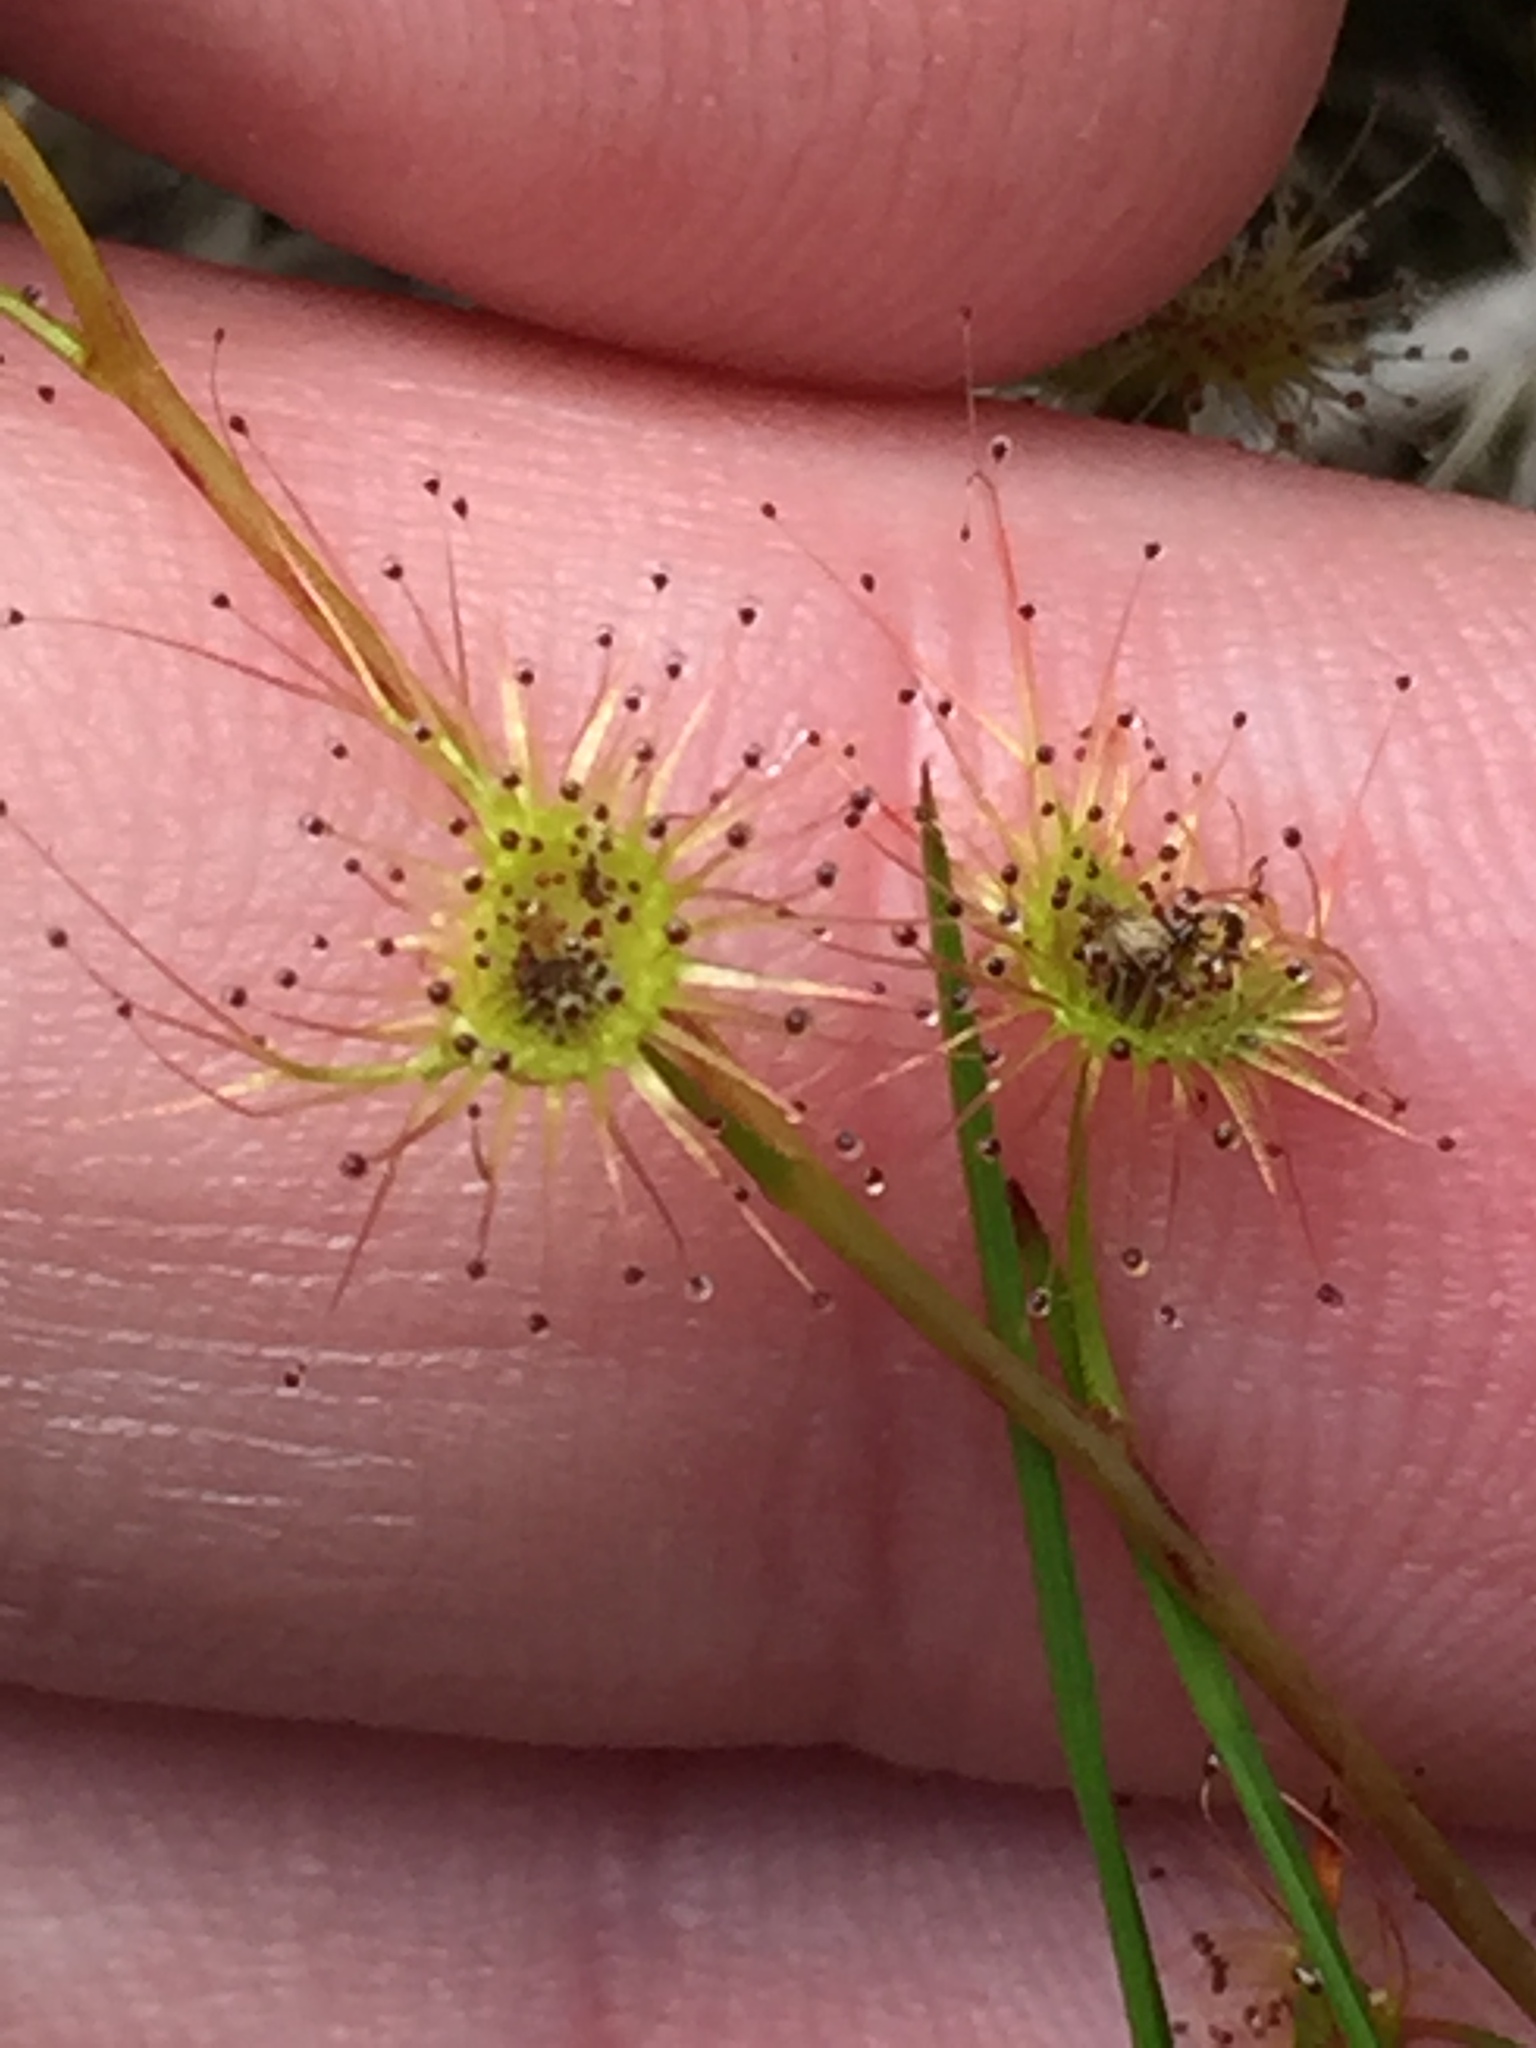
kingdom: Plantae
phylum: Tracheophyta
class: Magnoliopsida
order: Caryophyllales
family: Droseraceae
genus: Drosera
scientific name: Drosera peltata
